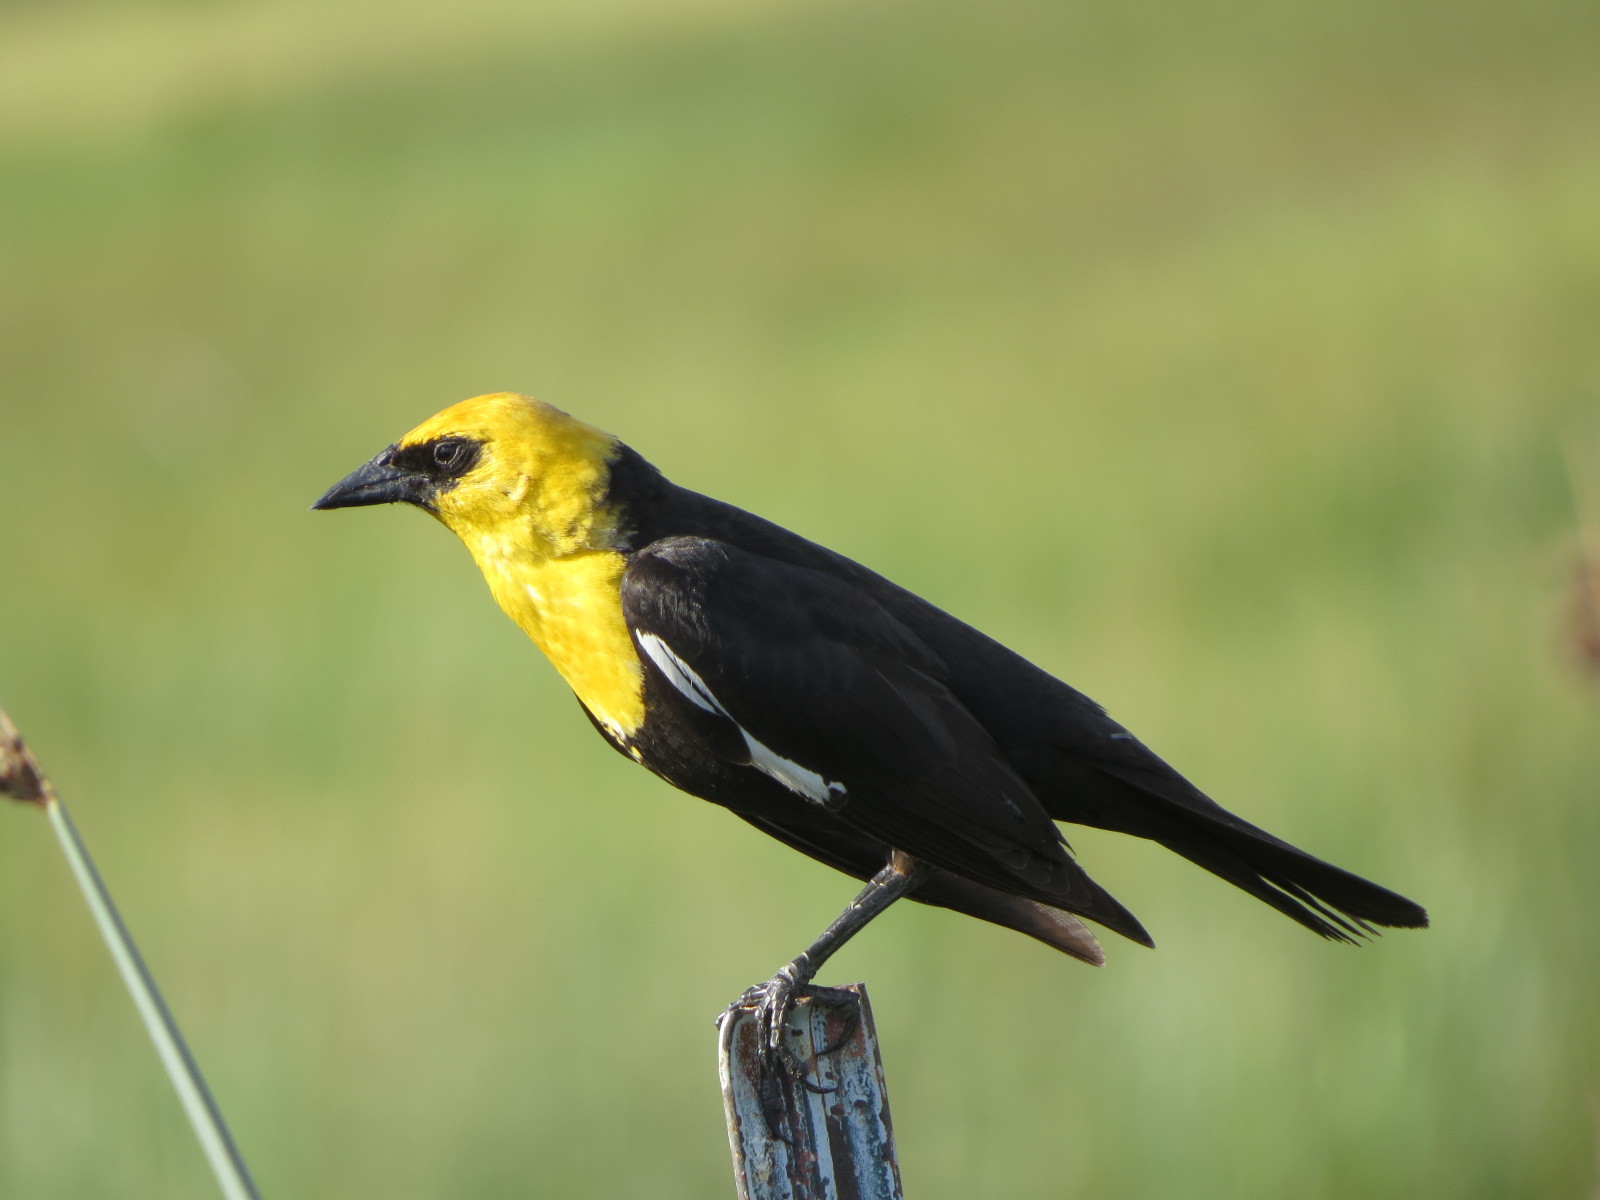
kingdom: Animalia
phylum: Chordata
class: Aves
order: Passeriformes
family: Icteridae
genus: Xanthocephalus
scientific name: Xanthocephalus xanthocephalus
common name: Yellow-headed blackbird
